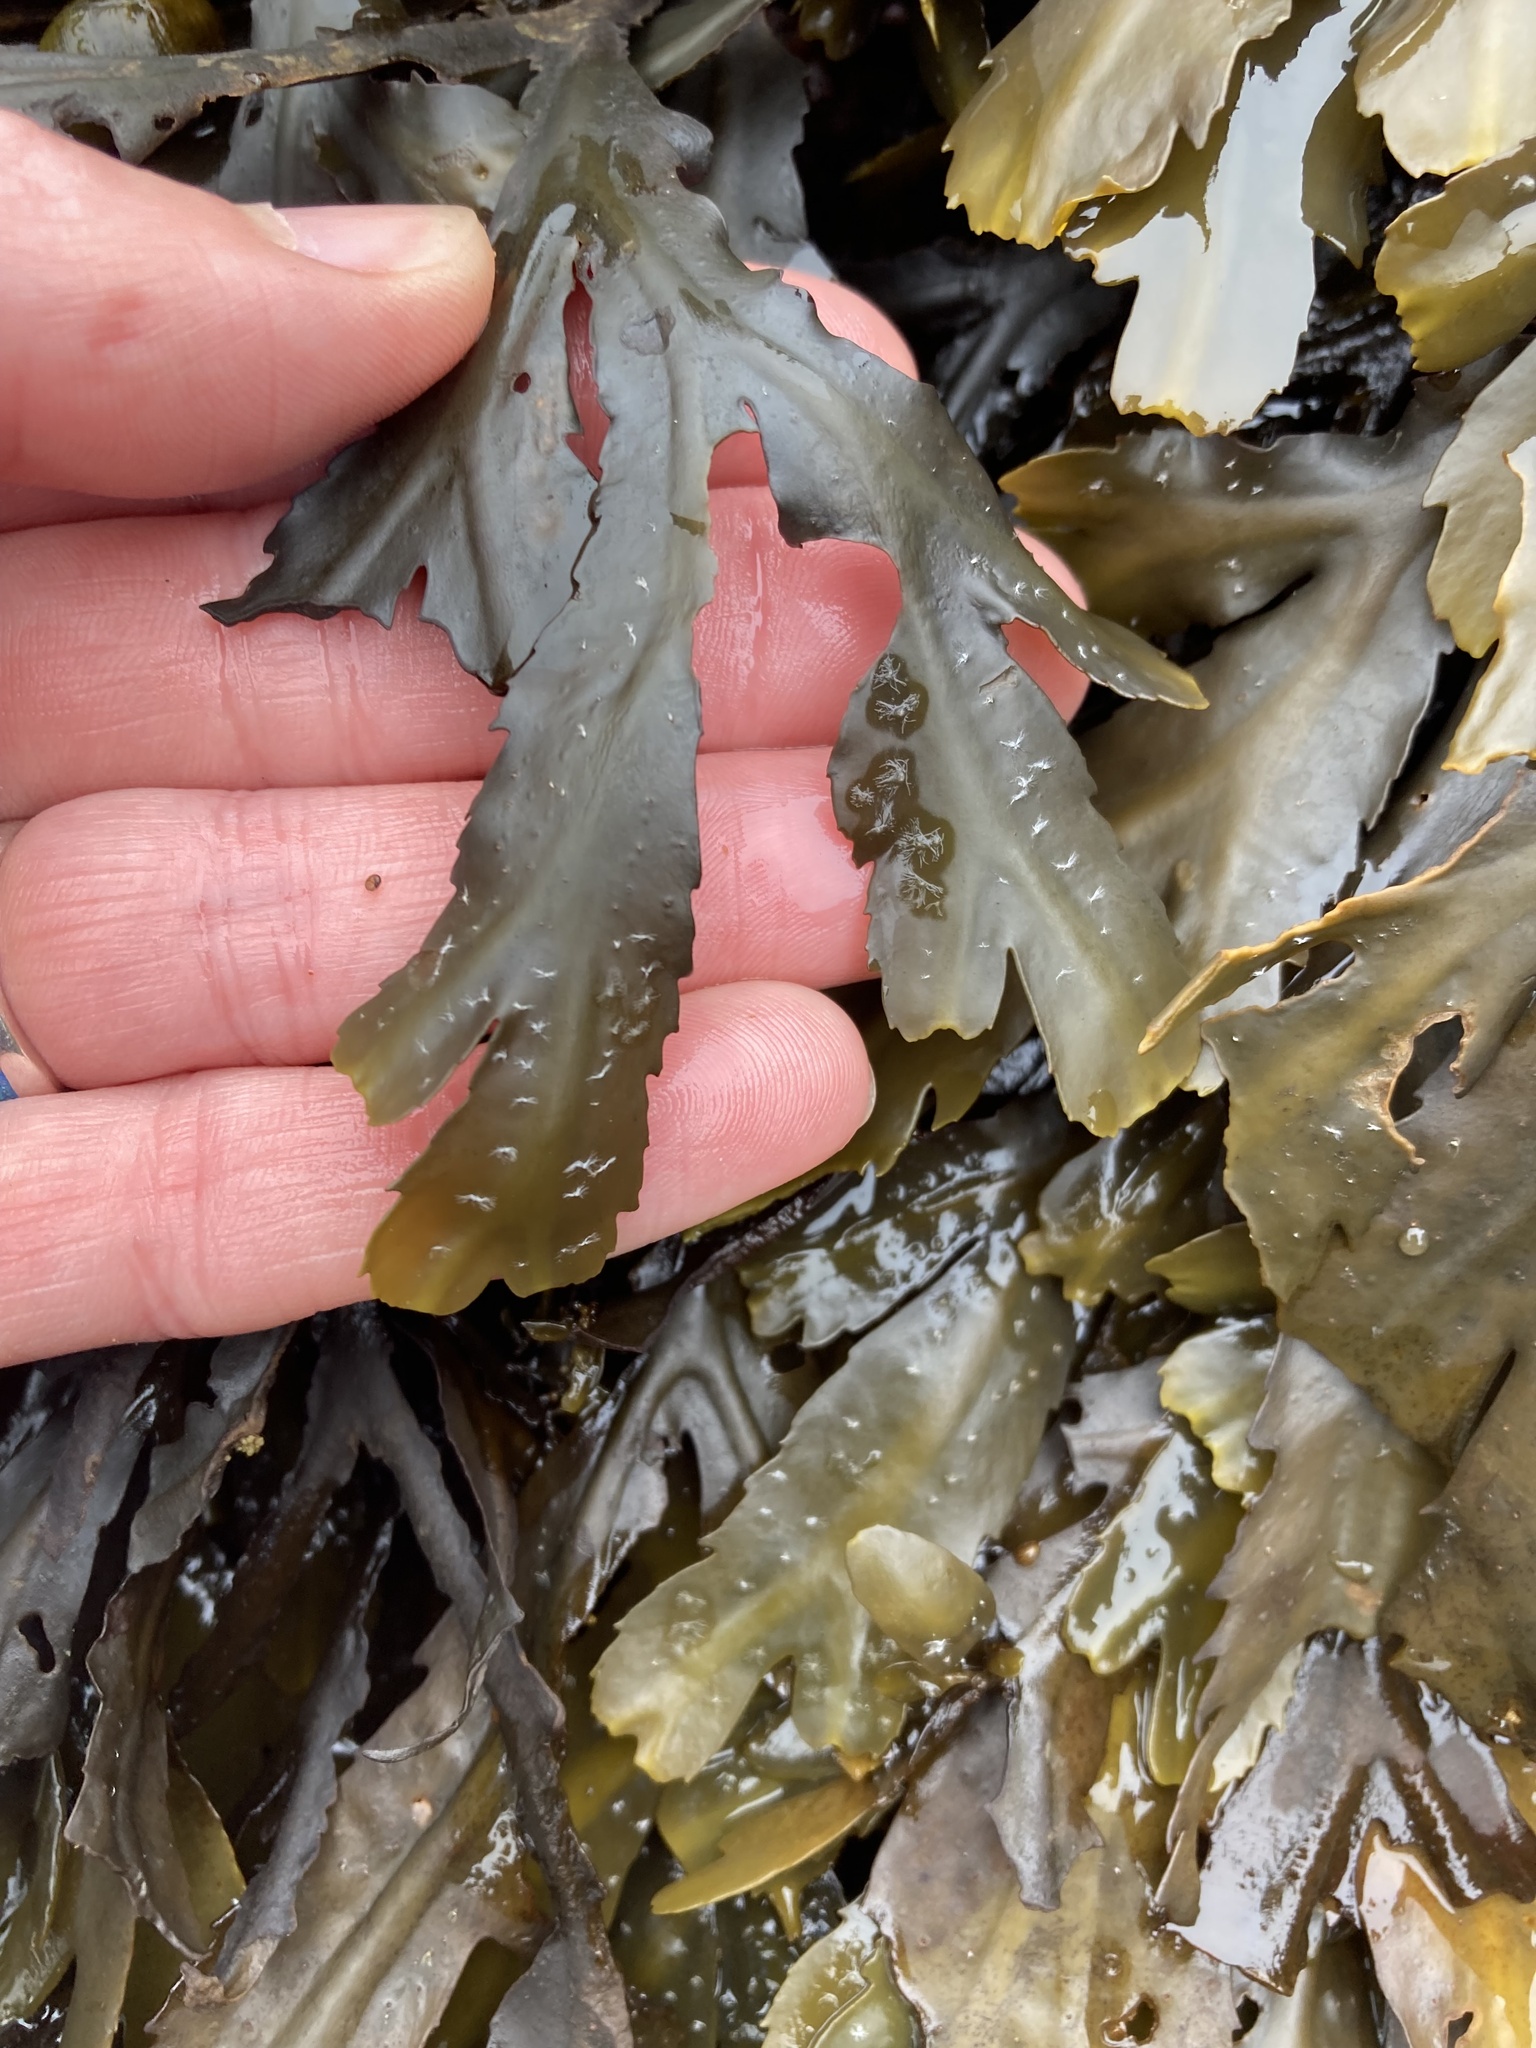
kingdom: Chromista
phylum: Ochrophyta
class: Phaeophyceae
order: Fucales
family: Fucaceae
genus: Fucus
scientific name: Fucus serratus
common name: Toothed wrack
